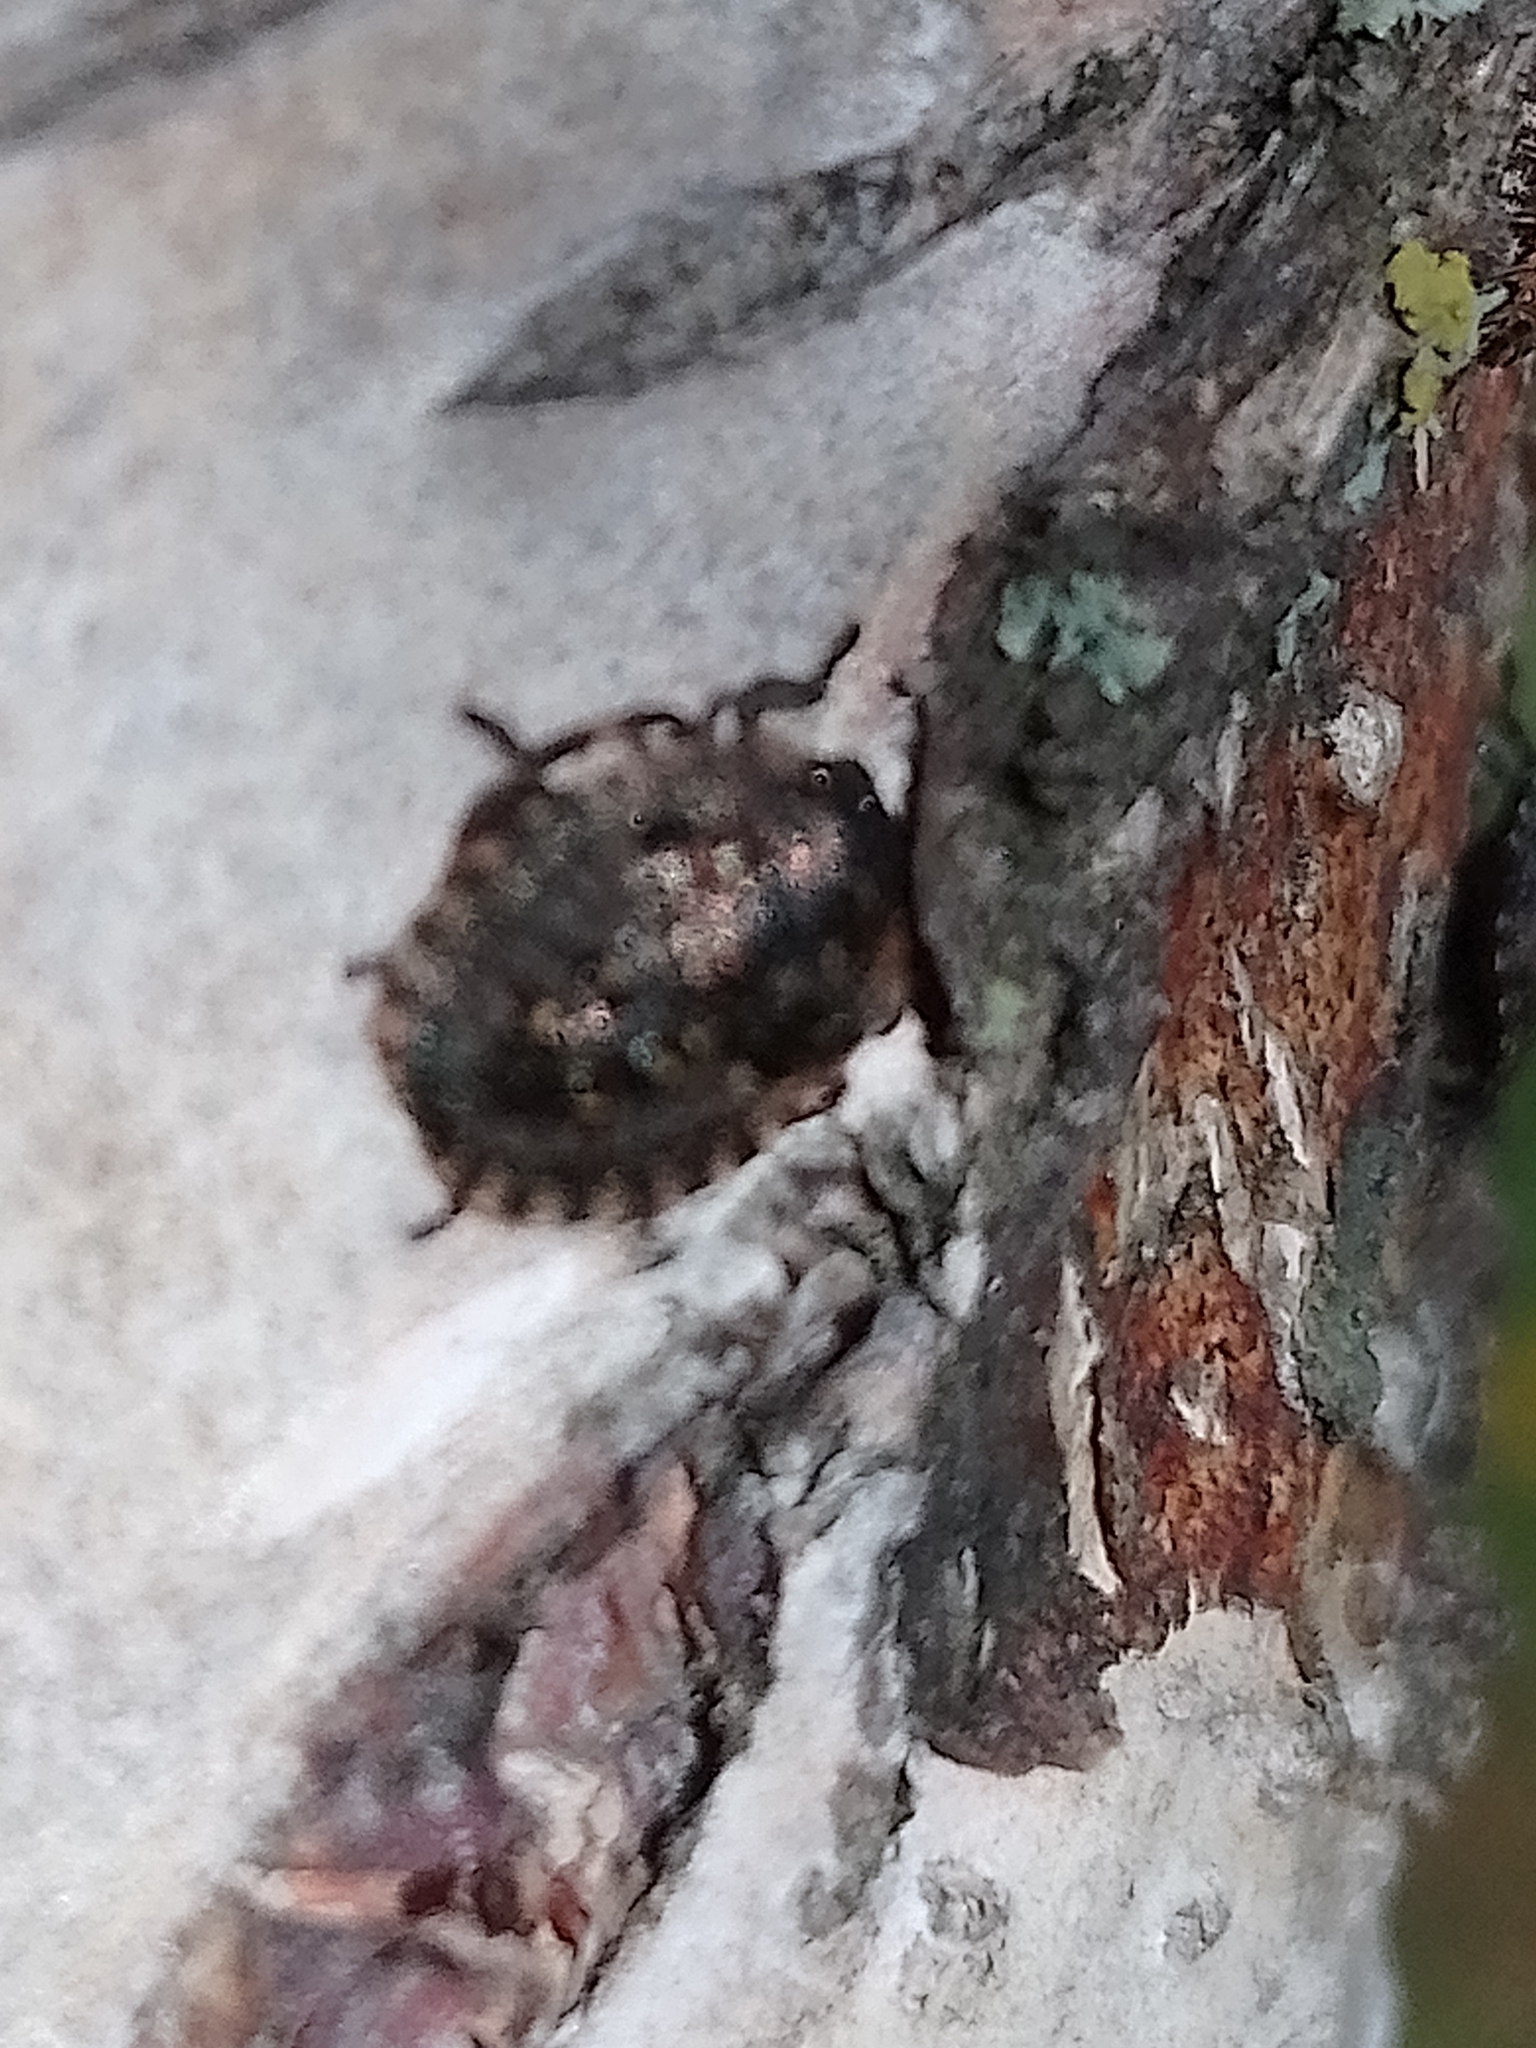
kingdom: Animalia
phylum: Arthropoda
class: Insecta
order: Hemiptera
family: Pentatomidae
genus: Pentatoma
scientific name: Pentatoma rufipes
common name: Forest bug
